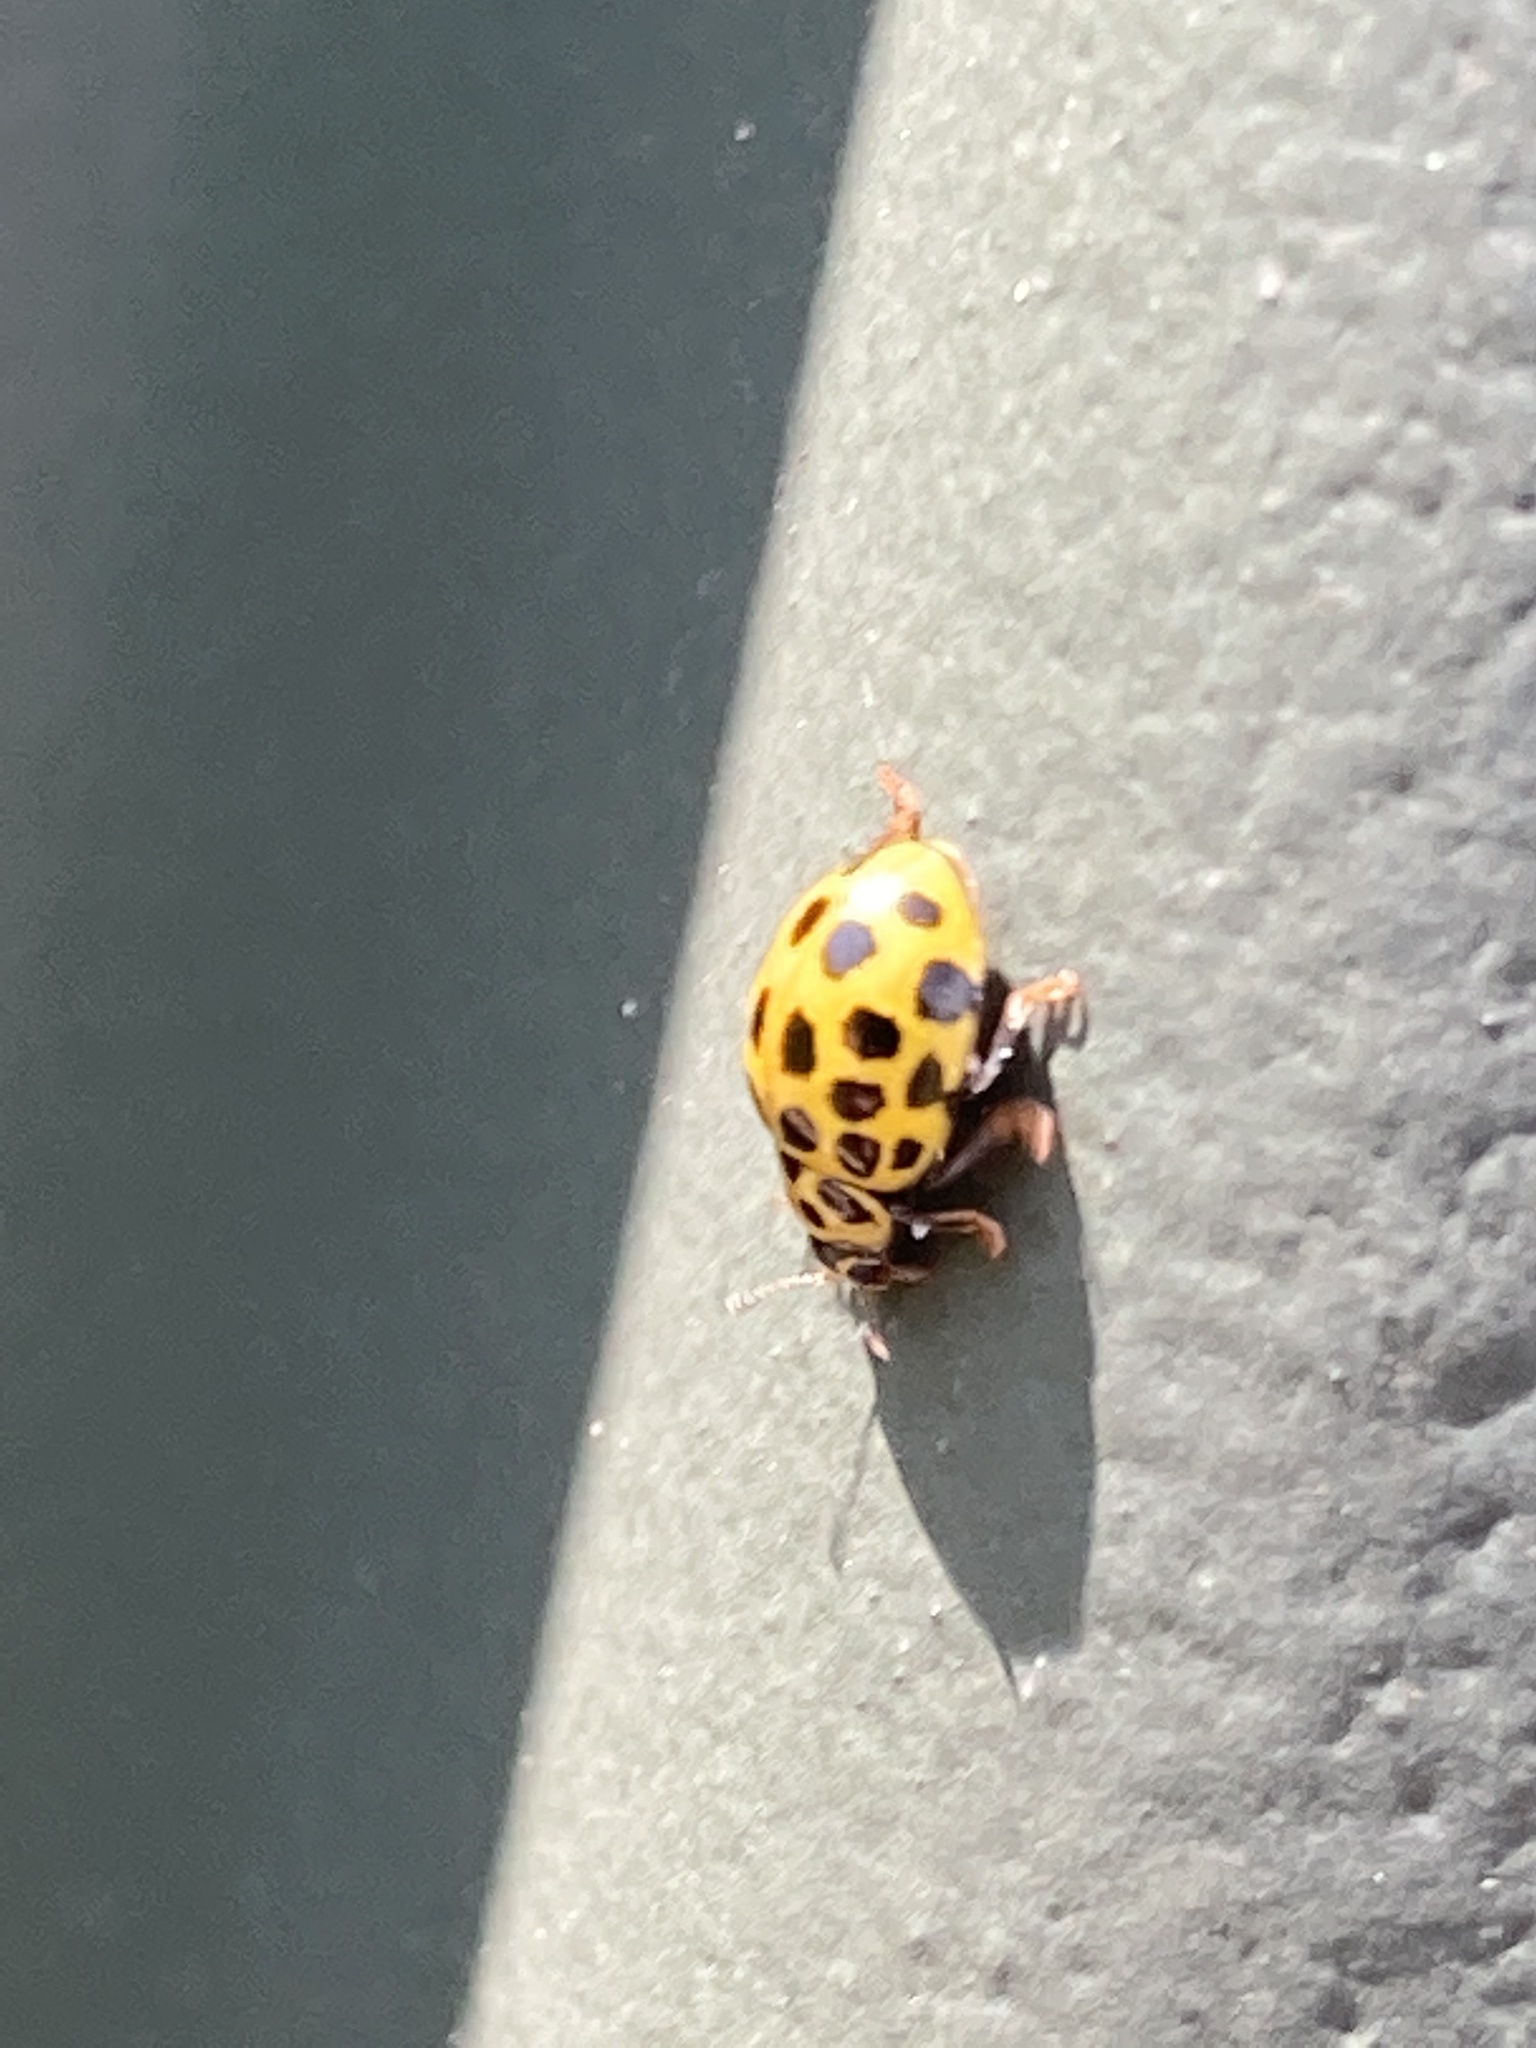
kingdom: Animalia
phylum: Arthropoda
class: Insecta
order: Coleoptera
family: Coccinellidae
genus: Psyllobora
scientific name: Psyllobora vigintiduopunctata
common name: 22-spot ladybird
